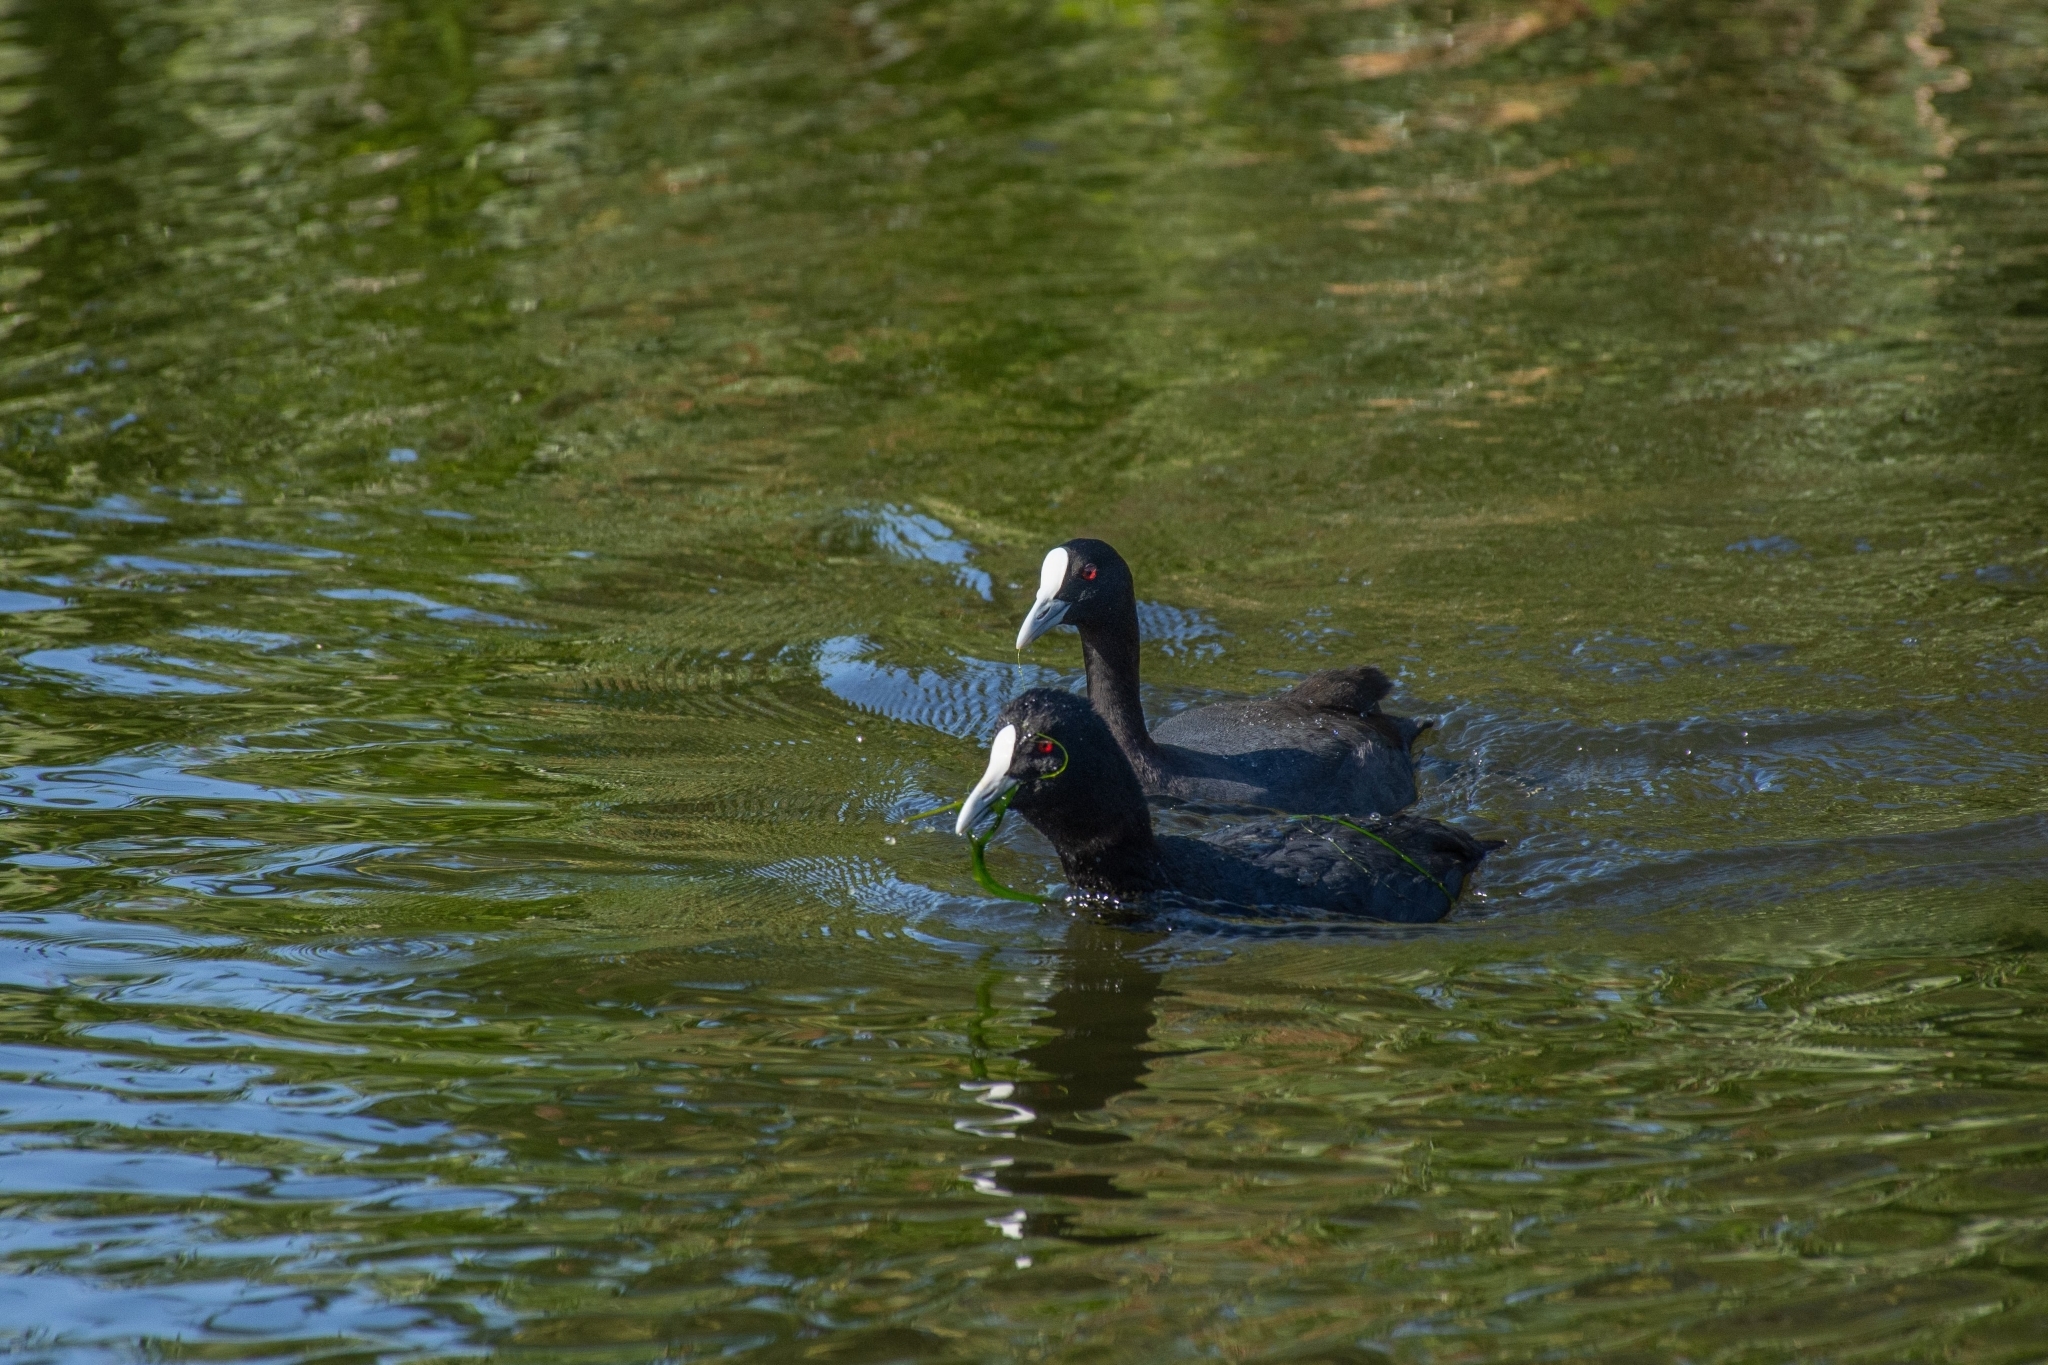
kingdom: Animalia
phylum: Chordata
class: Aves
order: Gruiformes
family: Rallidae
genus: Fulica
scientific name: Fulica atra
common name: Eurasian coot
